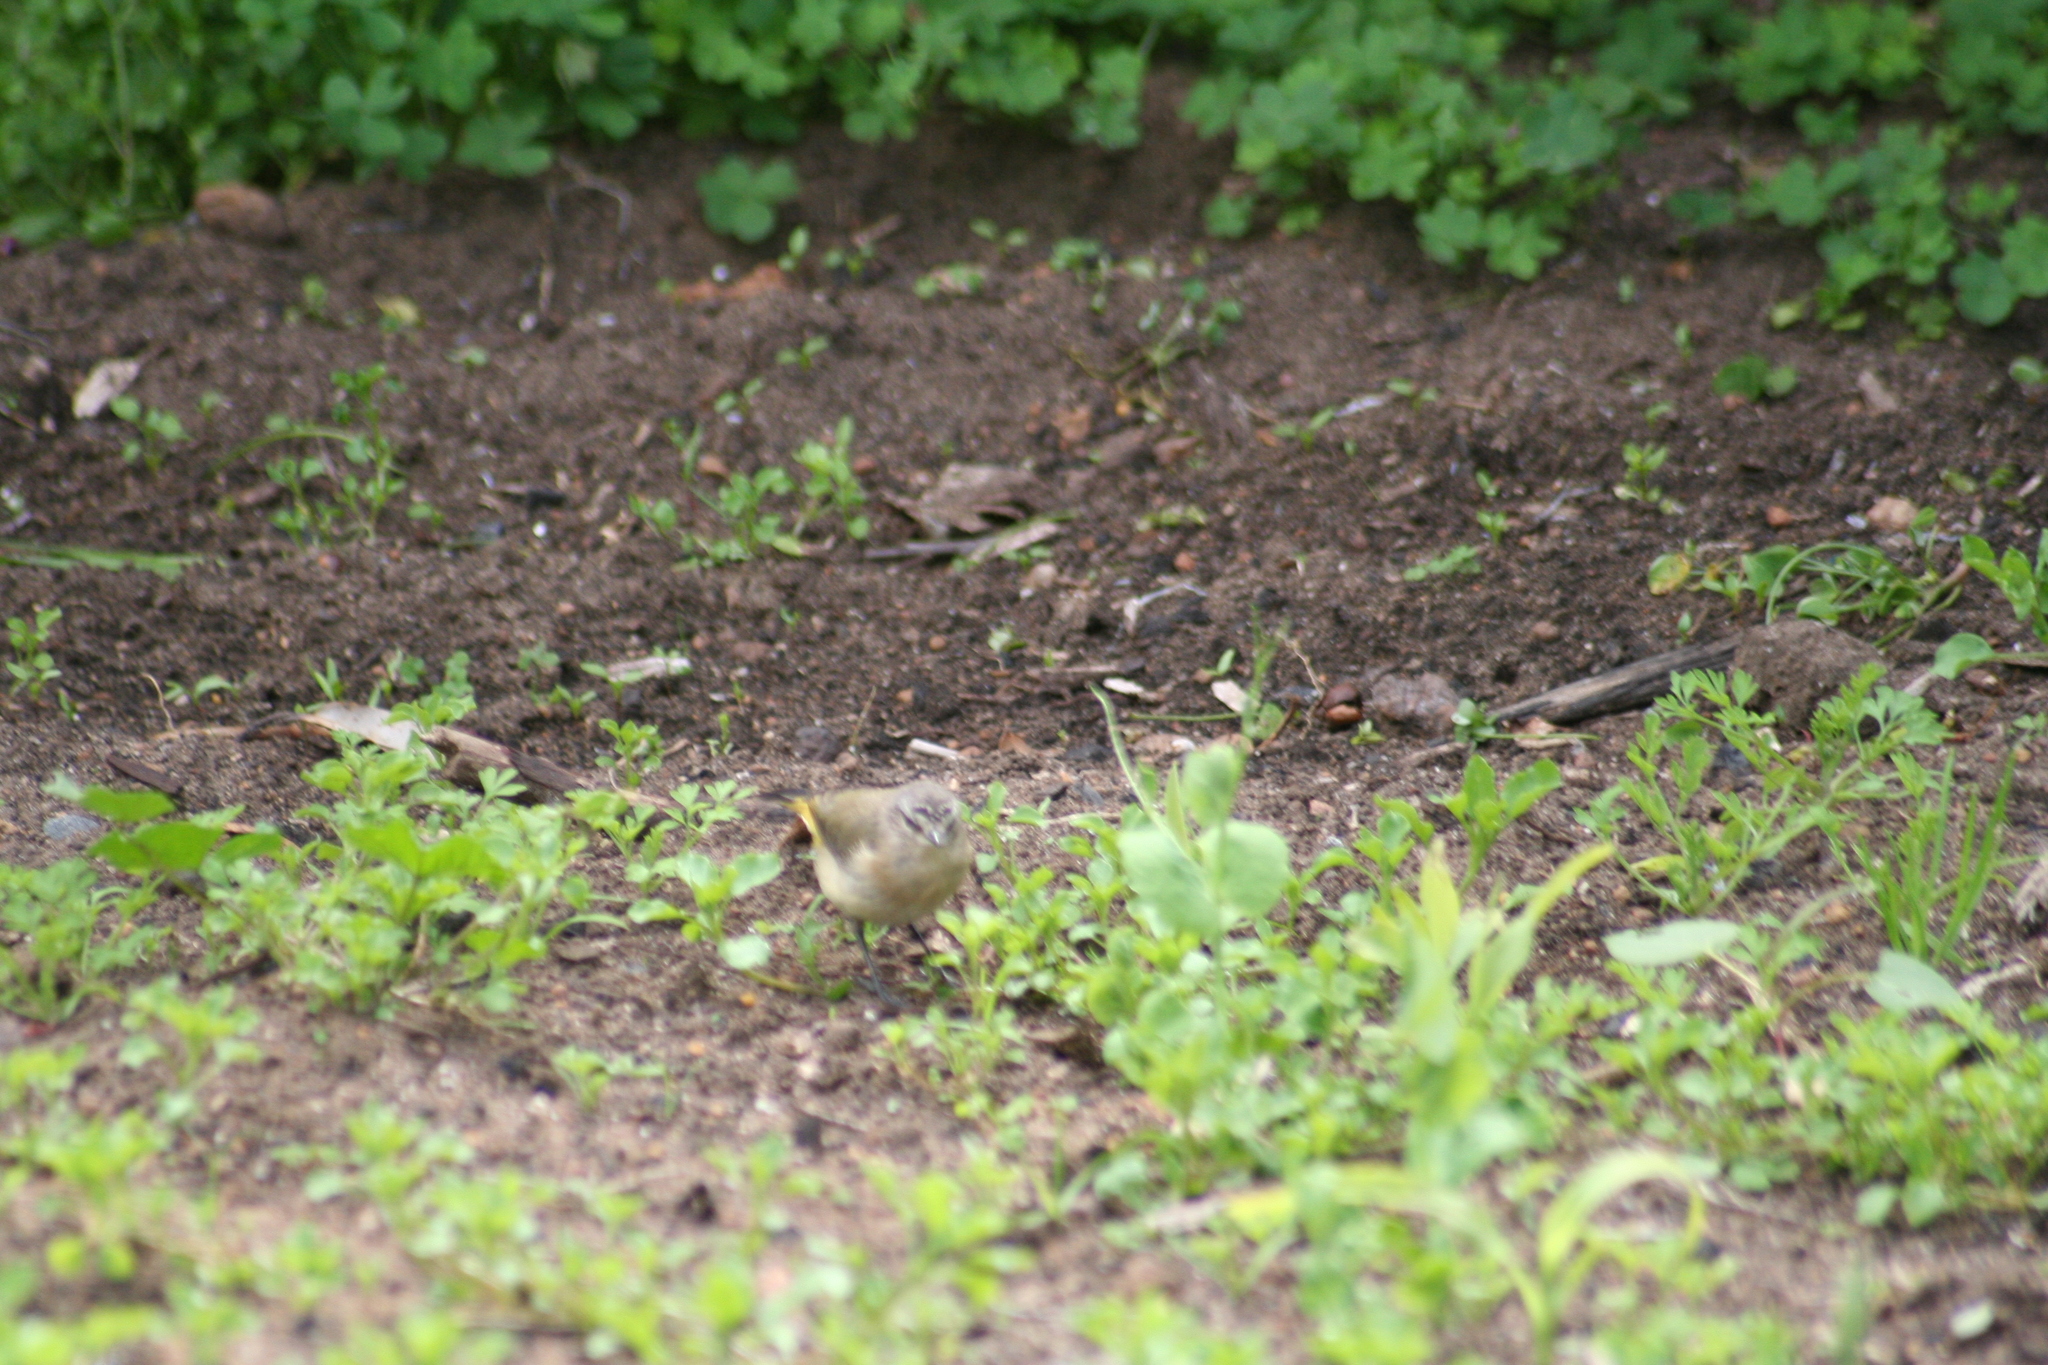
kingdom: Animalia
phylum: Chordata
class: Aves
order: Passeriformes
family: Acanthizidae
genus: Acanthiza
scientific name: Acanthiza chrysorrhoa
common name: Yellow-rumped thornbill
